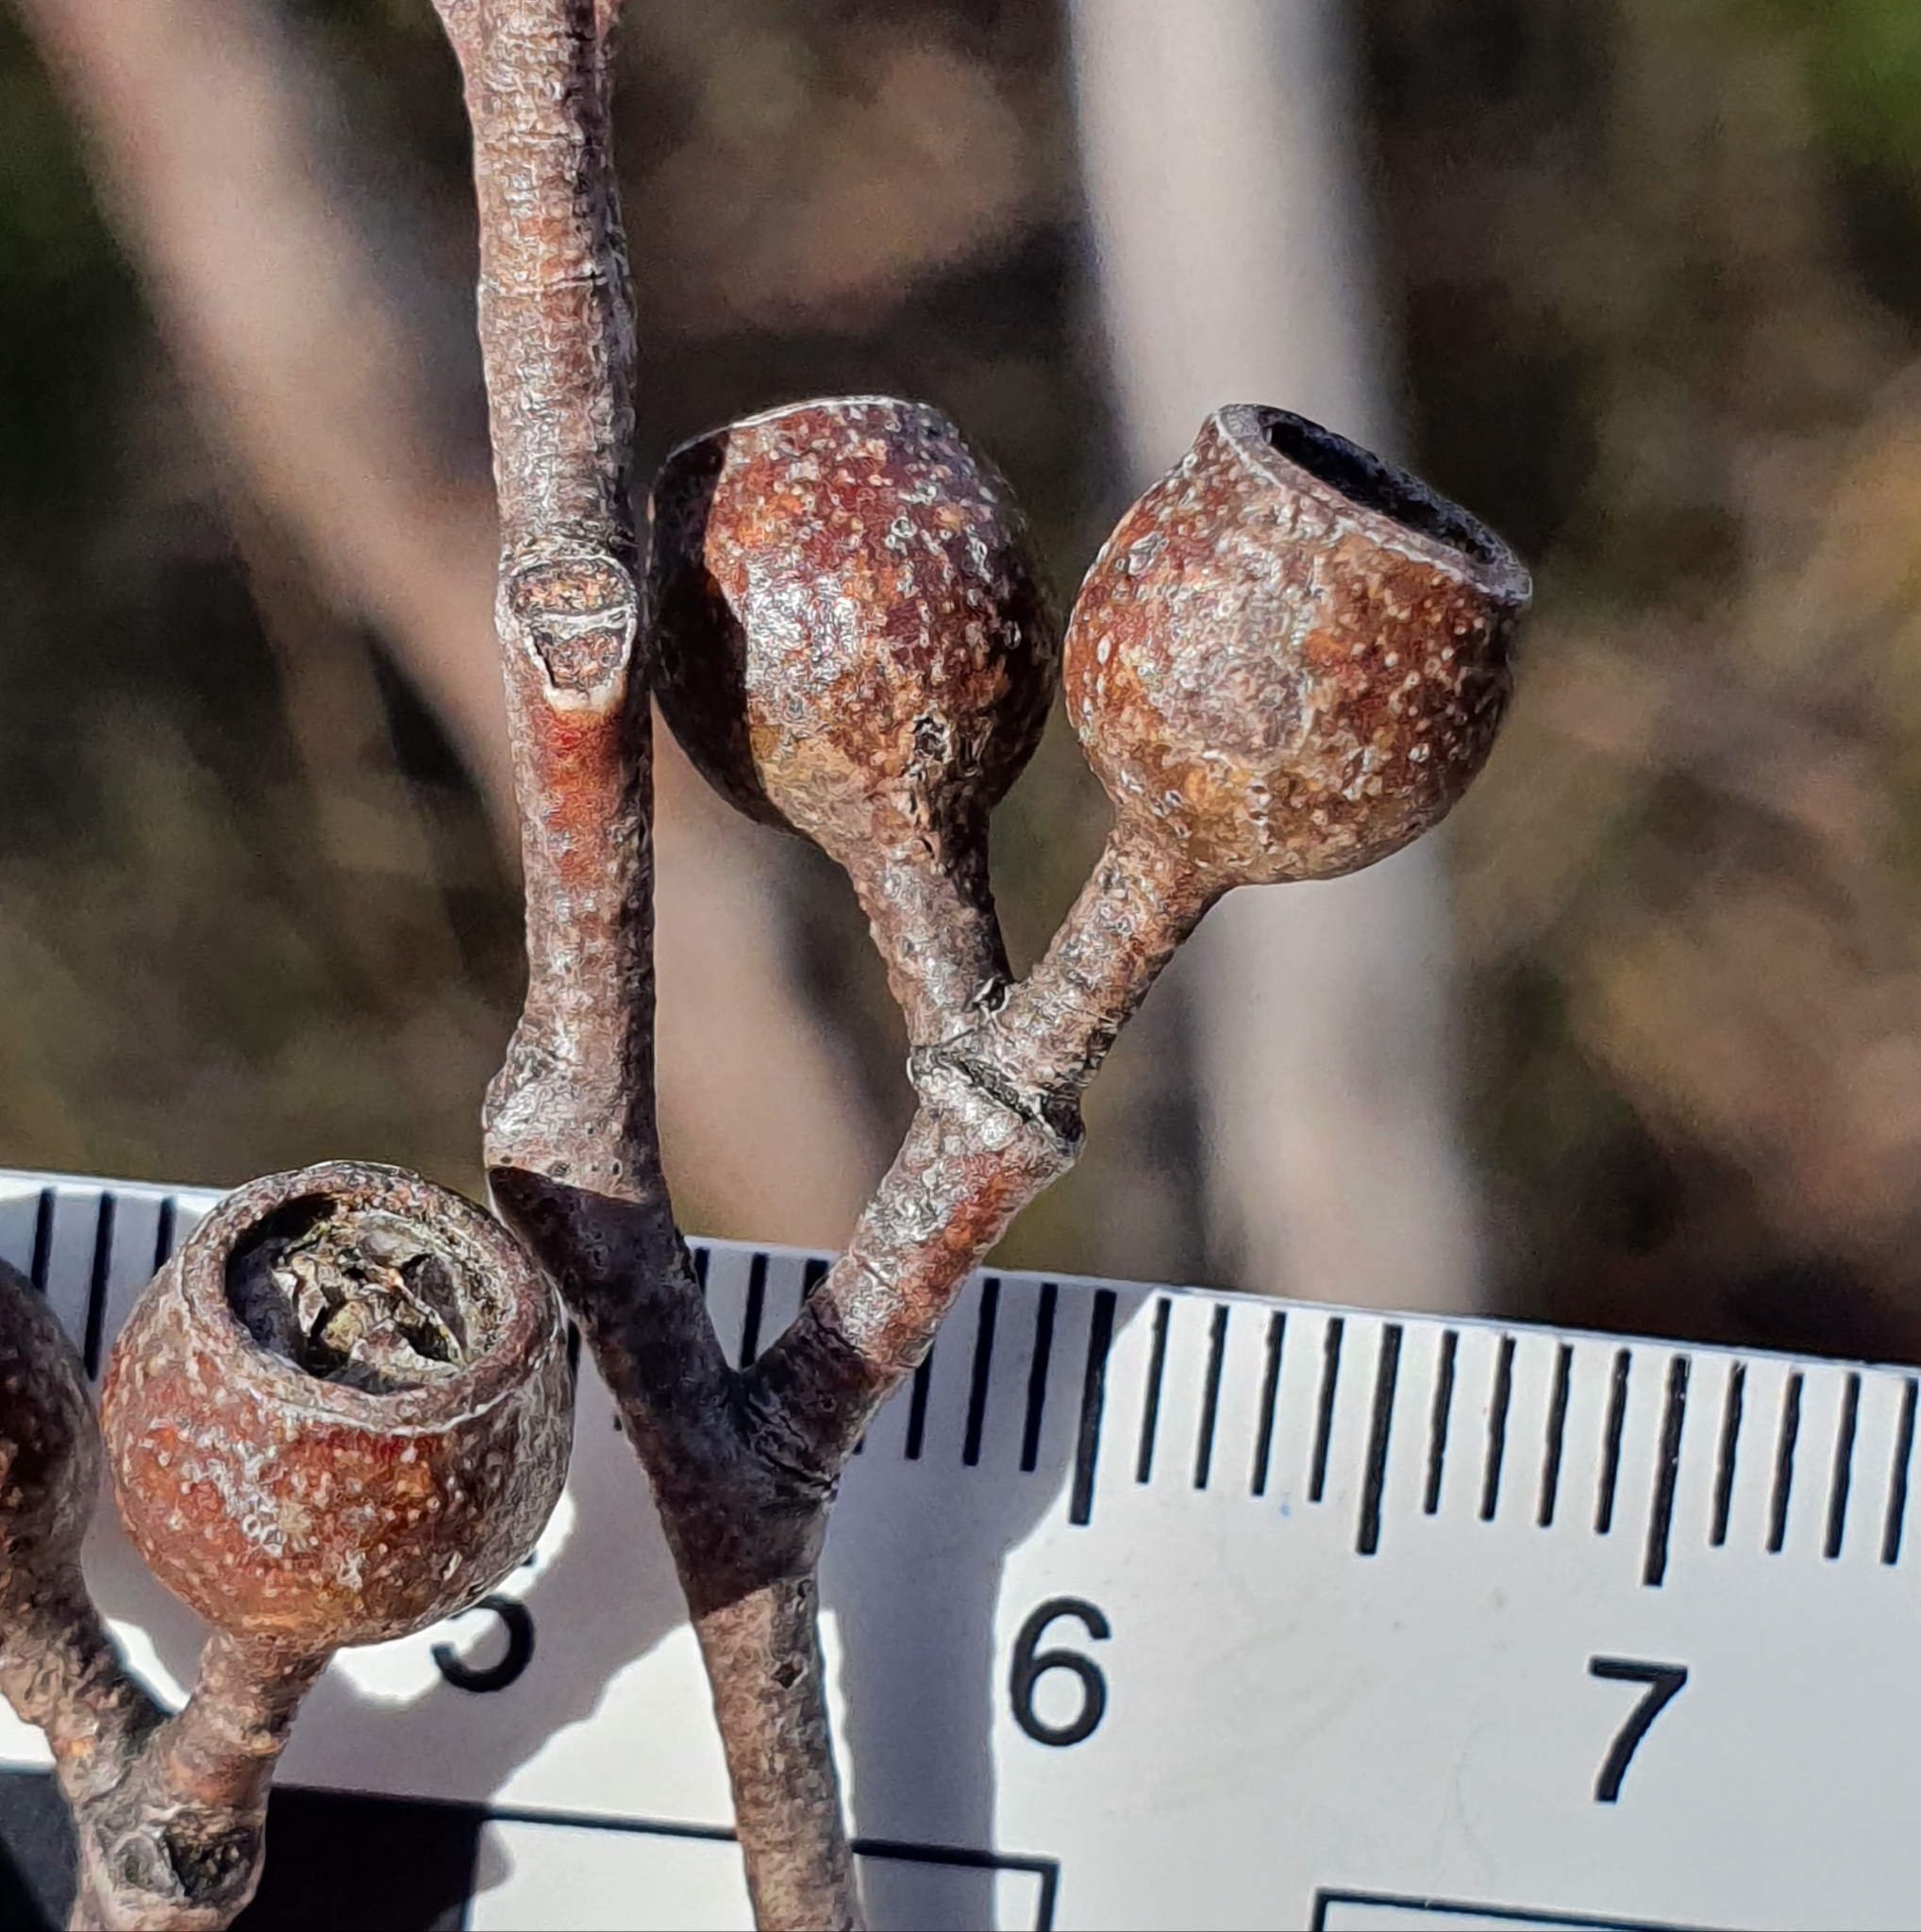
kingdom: Plantae
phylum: Tracheophyta
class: Magnoliopsida
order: Myrtales
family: Myrtaceae
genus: Eucalyptus
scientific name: Eucalyptus stricta
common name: Blue-mountain-malle-ash
